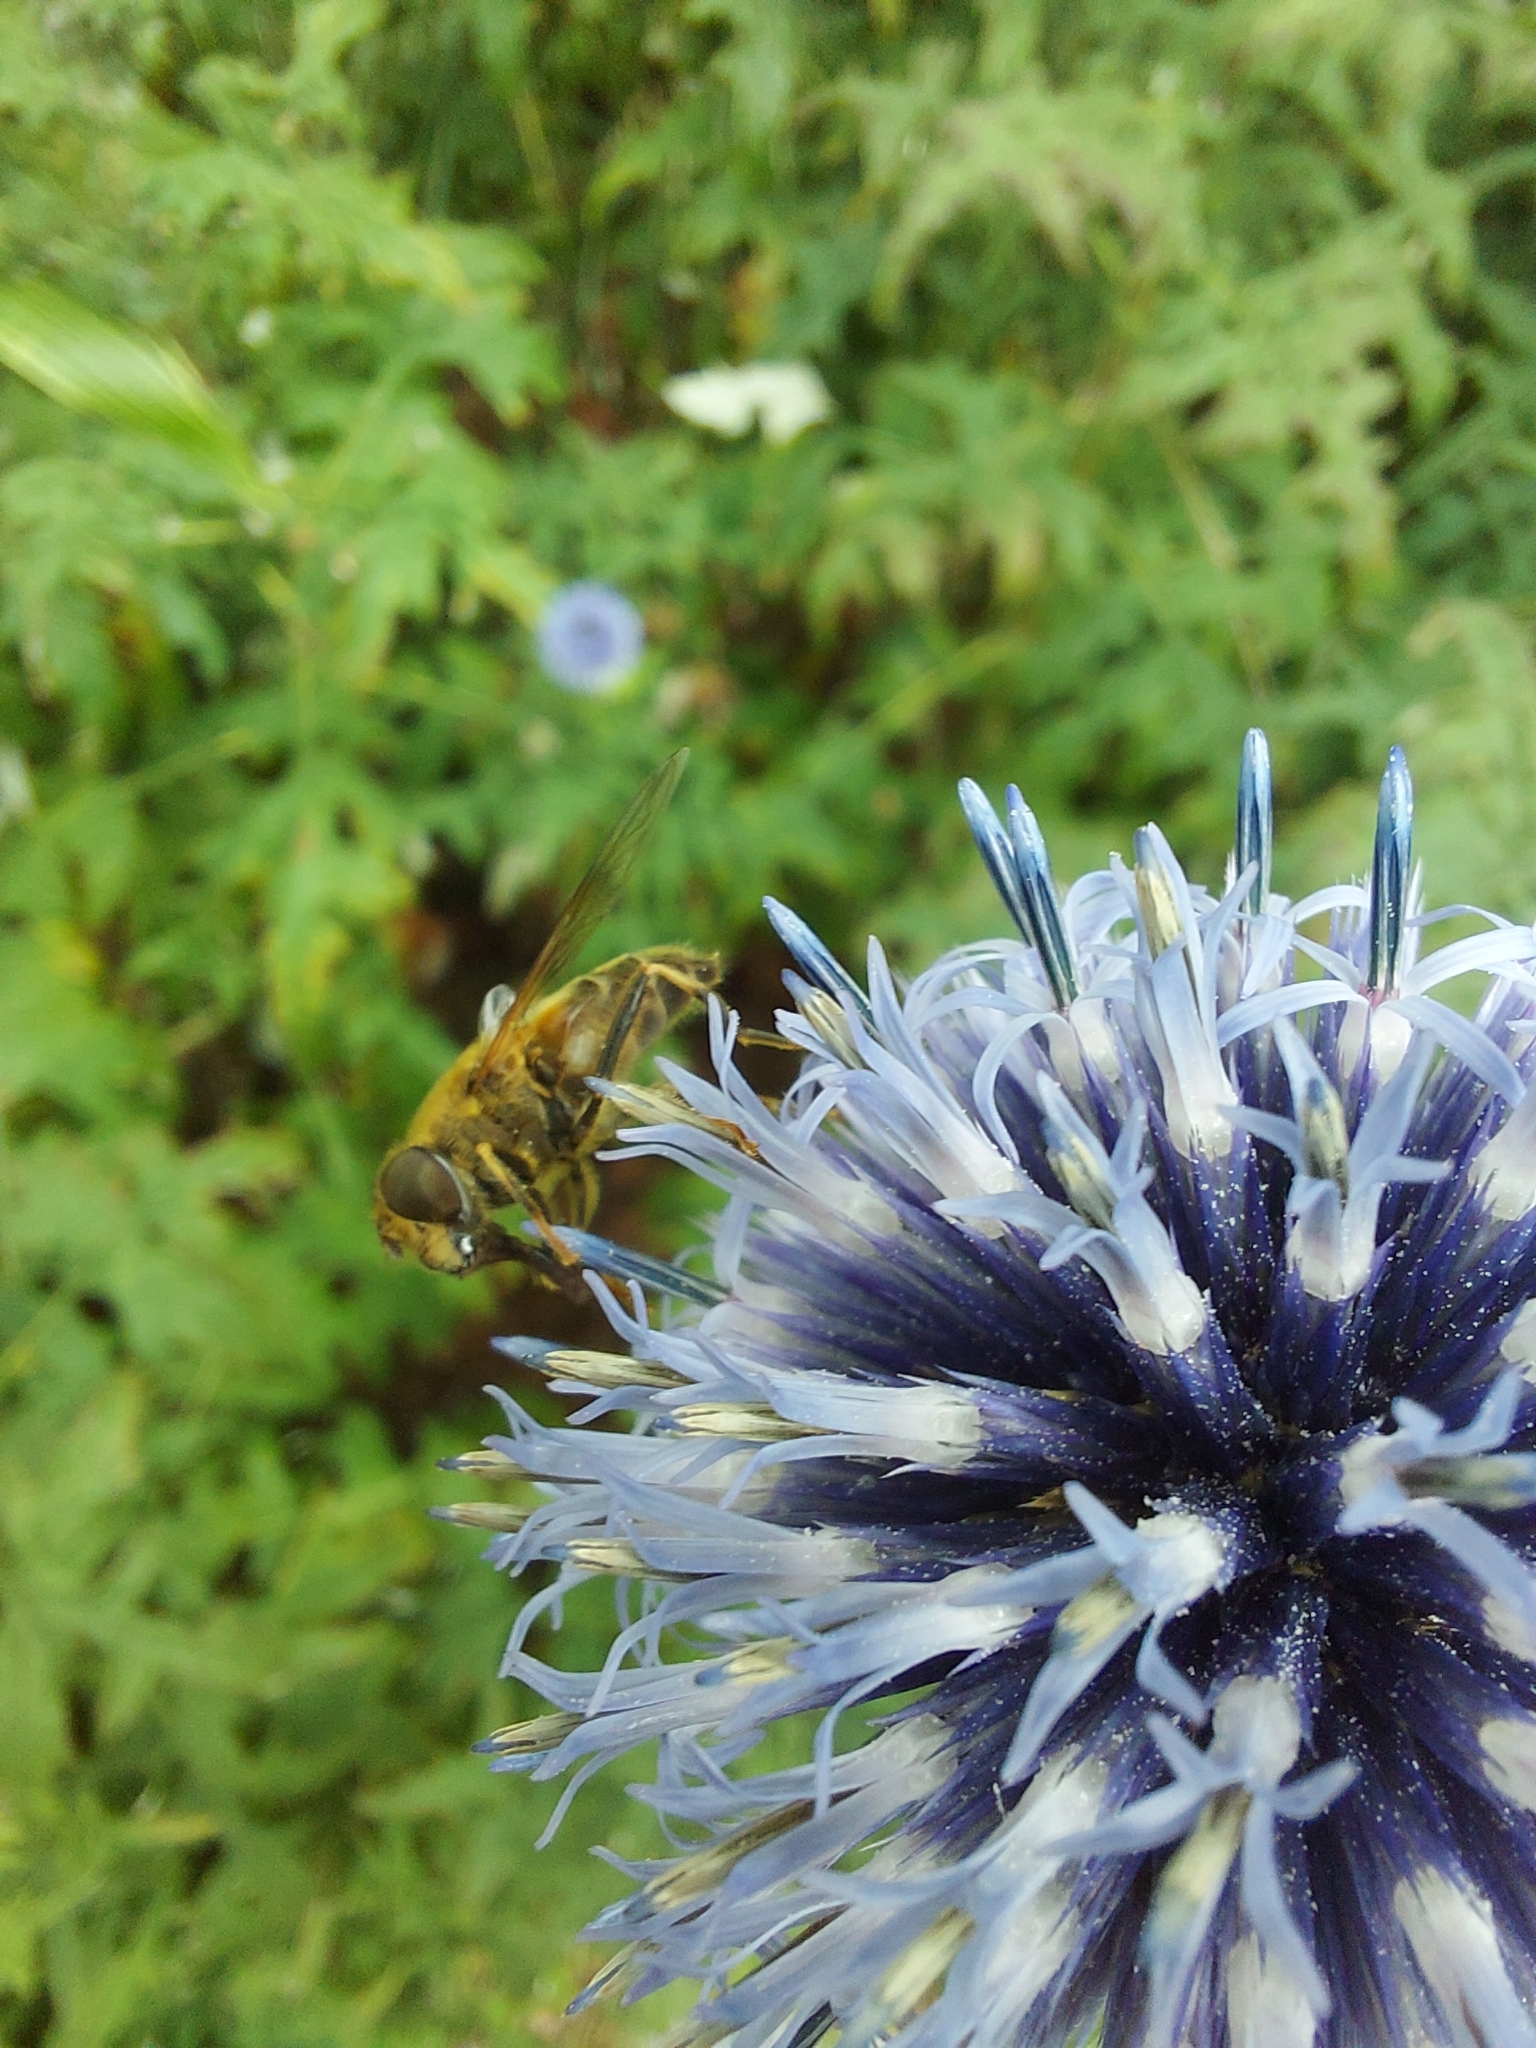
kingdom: Animalia
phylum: Arthropoda
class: Insecta
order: Diptera
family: Syrphidae
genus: Eristalis
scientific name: Eristalis pertinax
